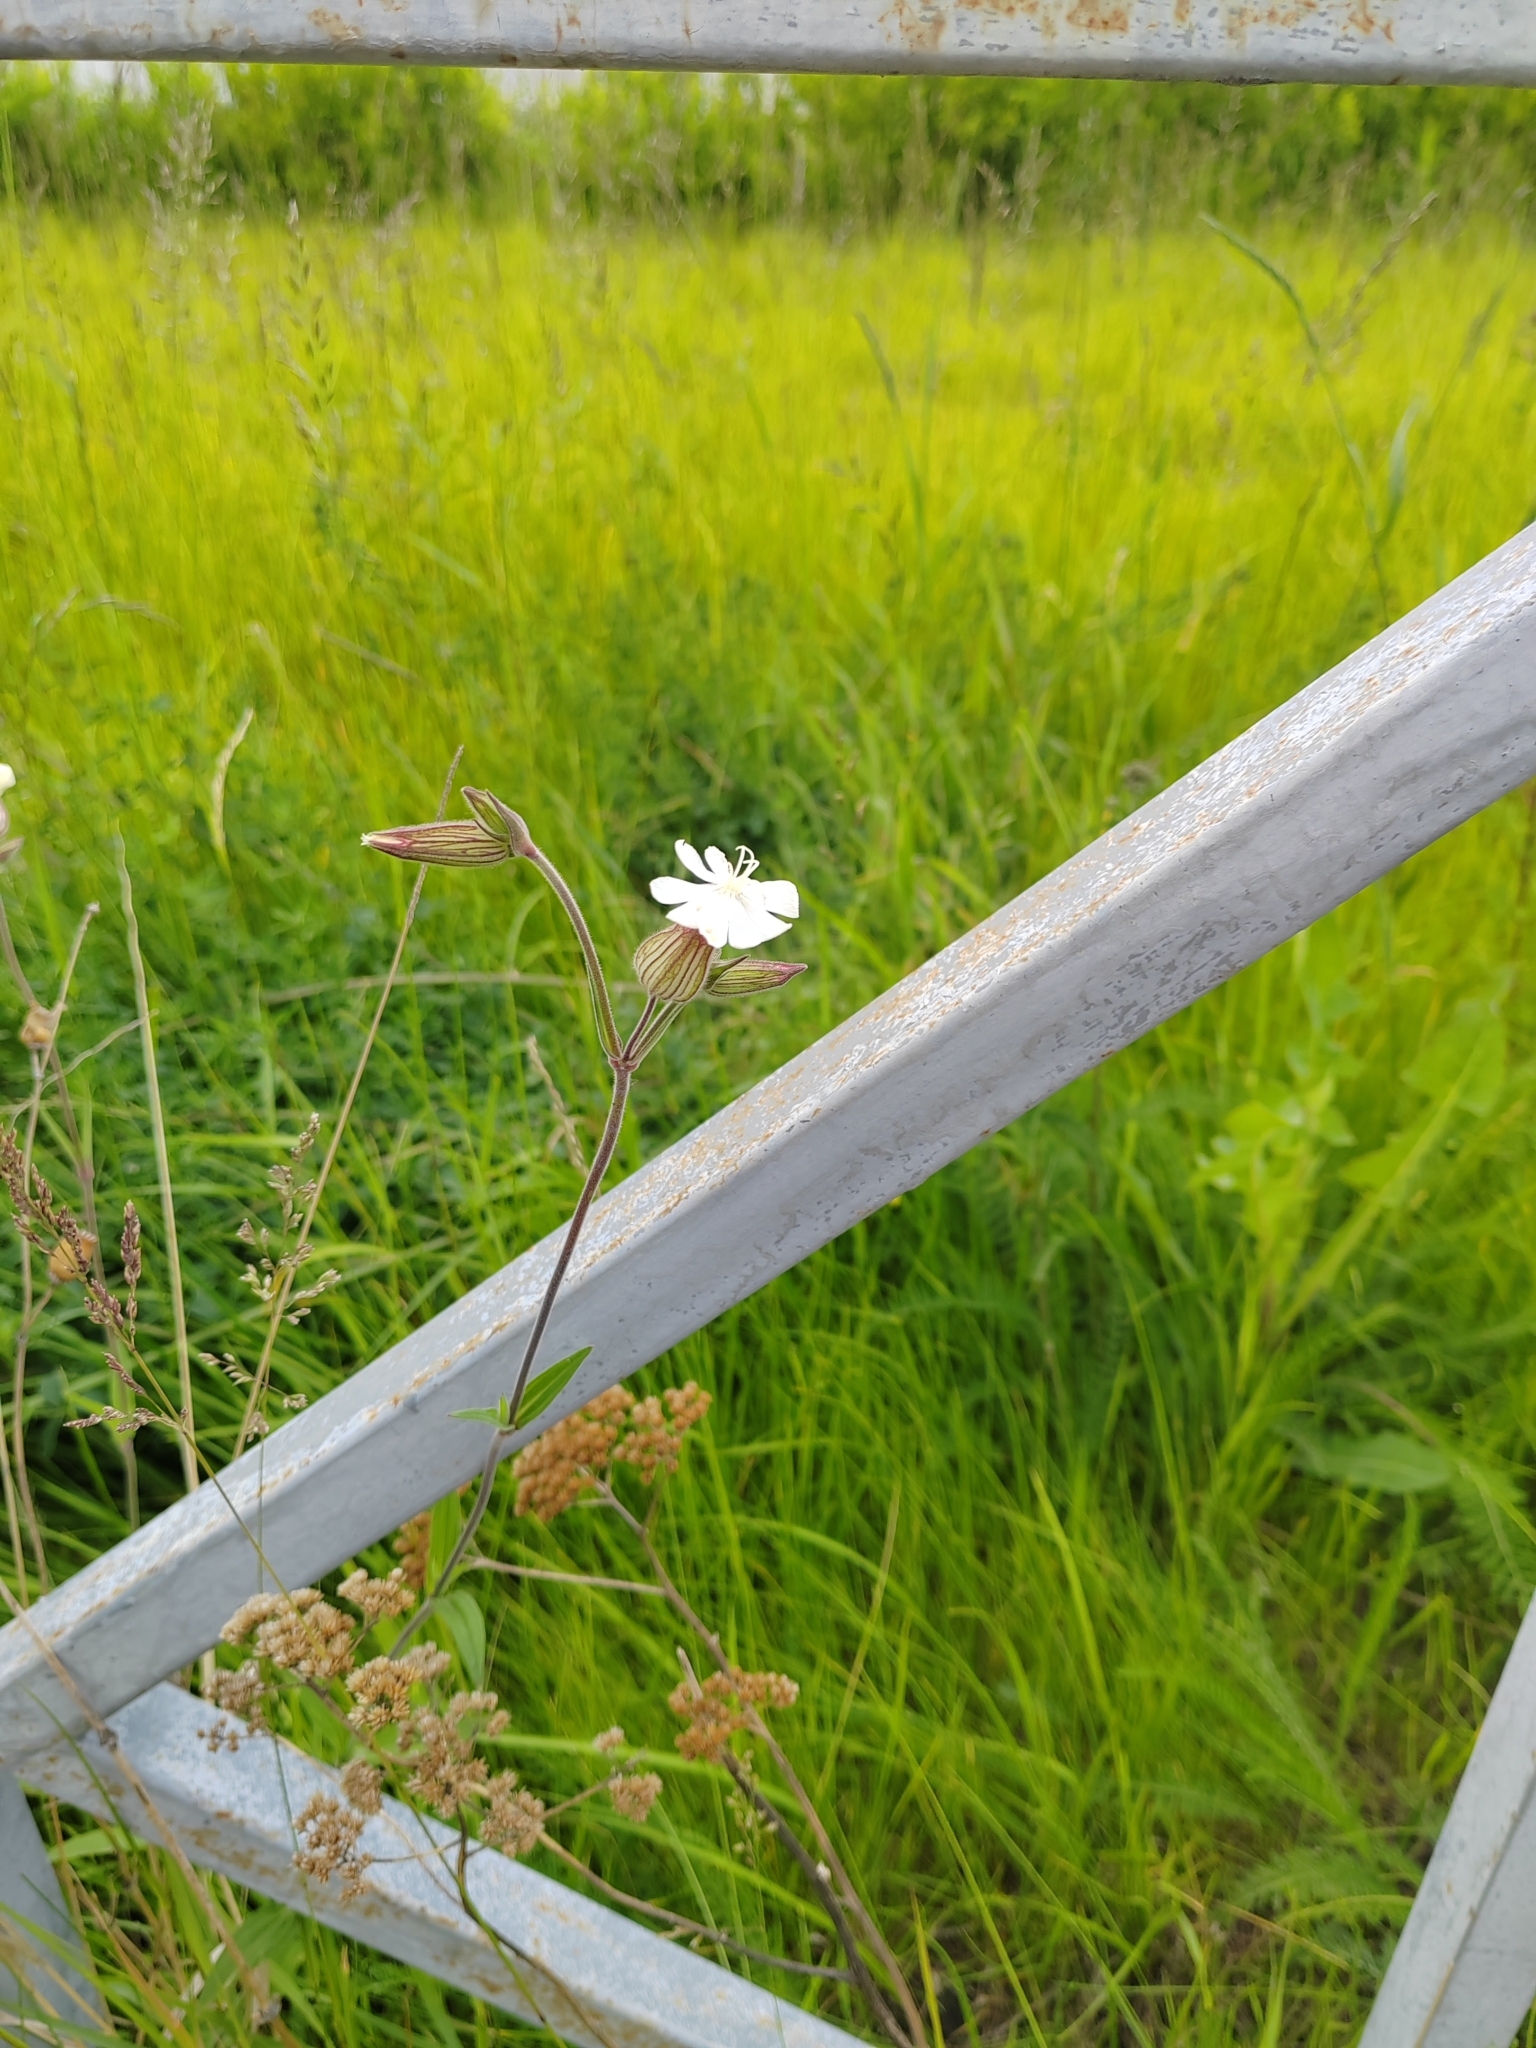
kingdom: Plantae
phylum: Tracheophyta
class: Magnoliopsida
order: Caryophyllales
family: Caryophyllaceae
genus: Silene
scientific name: Silene latifolia
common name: White campion
